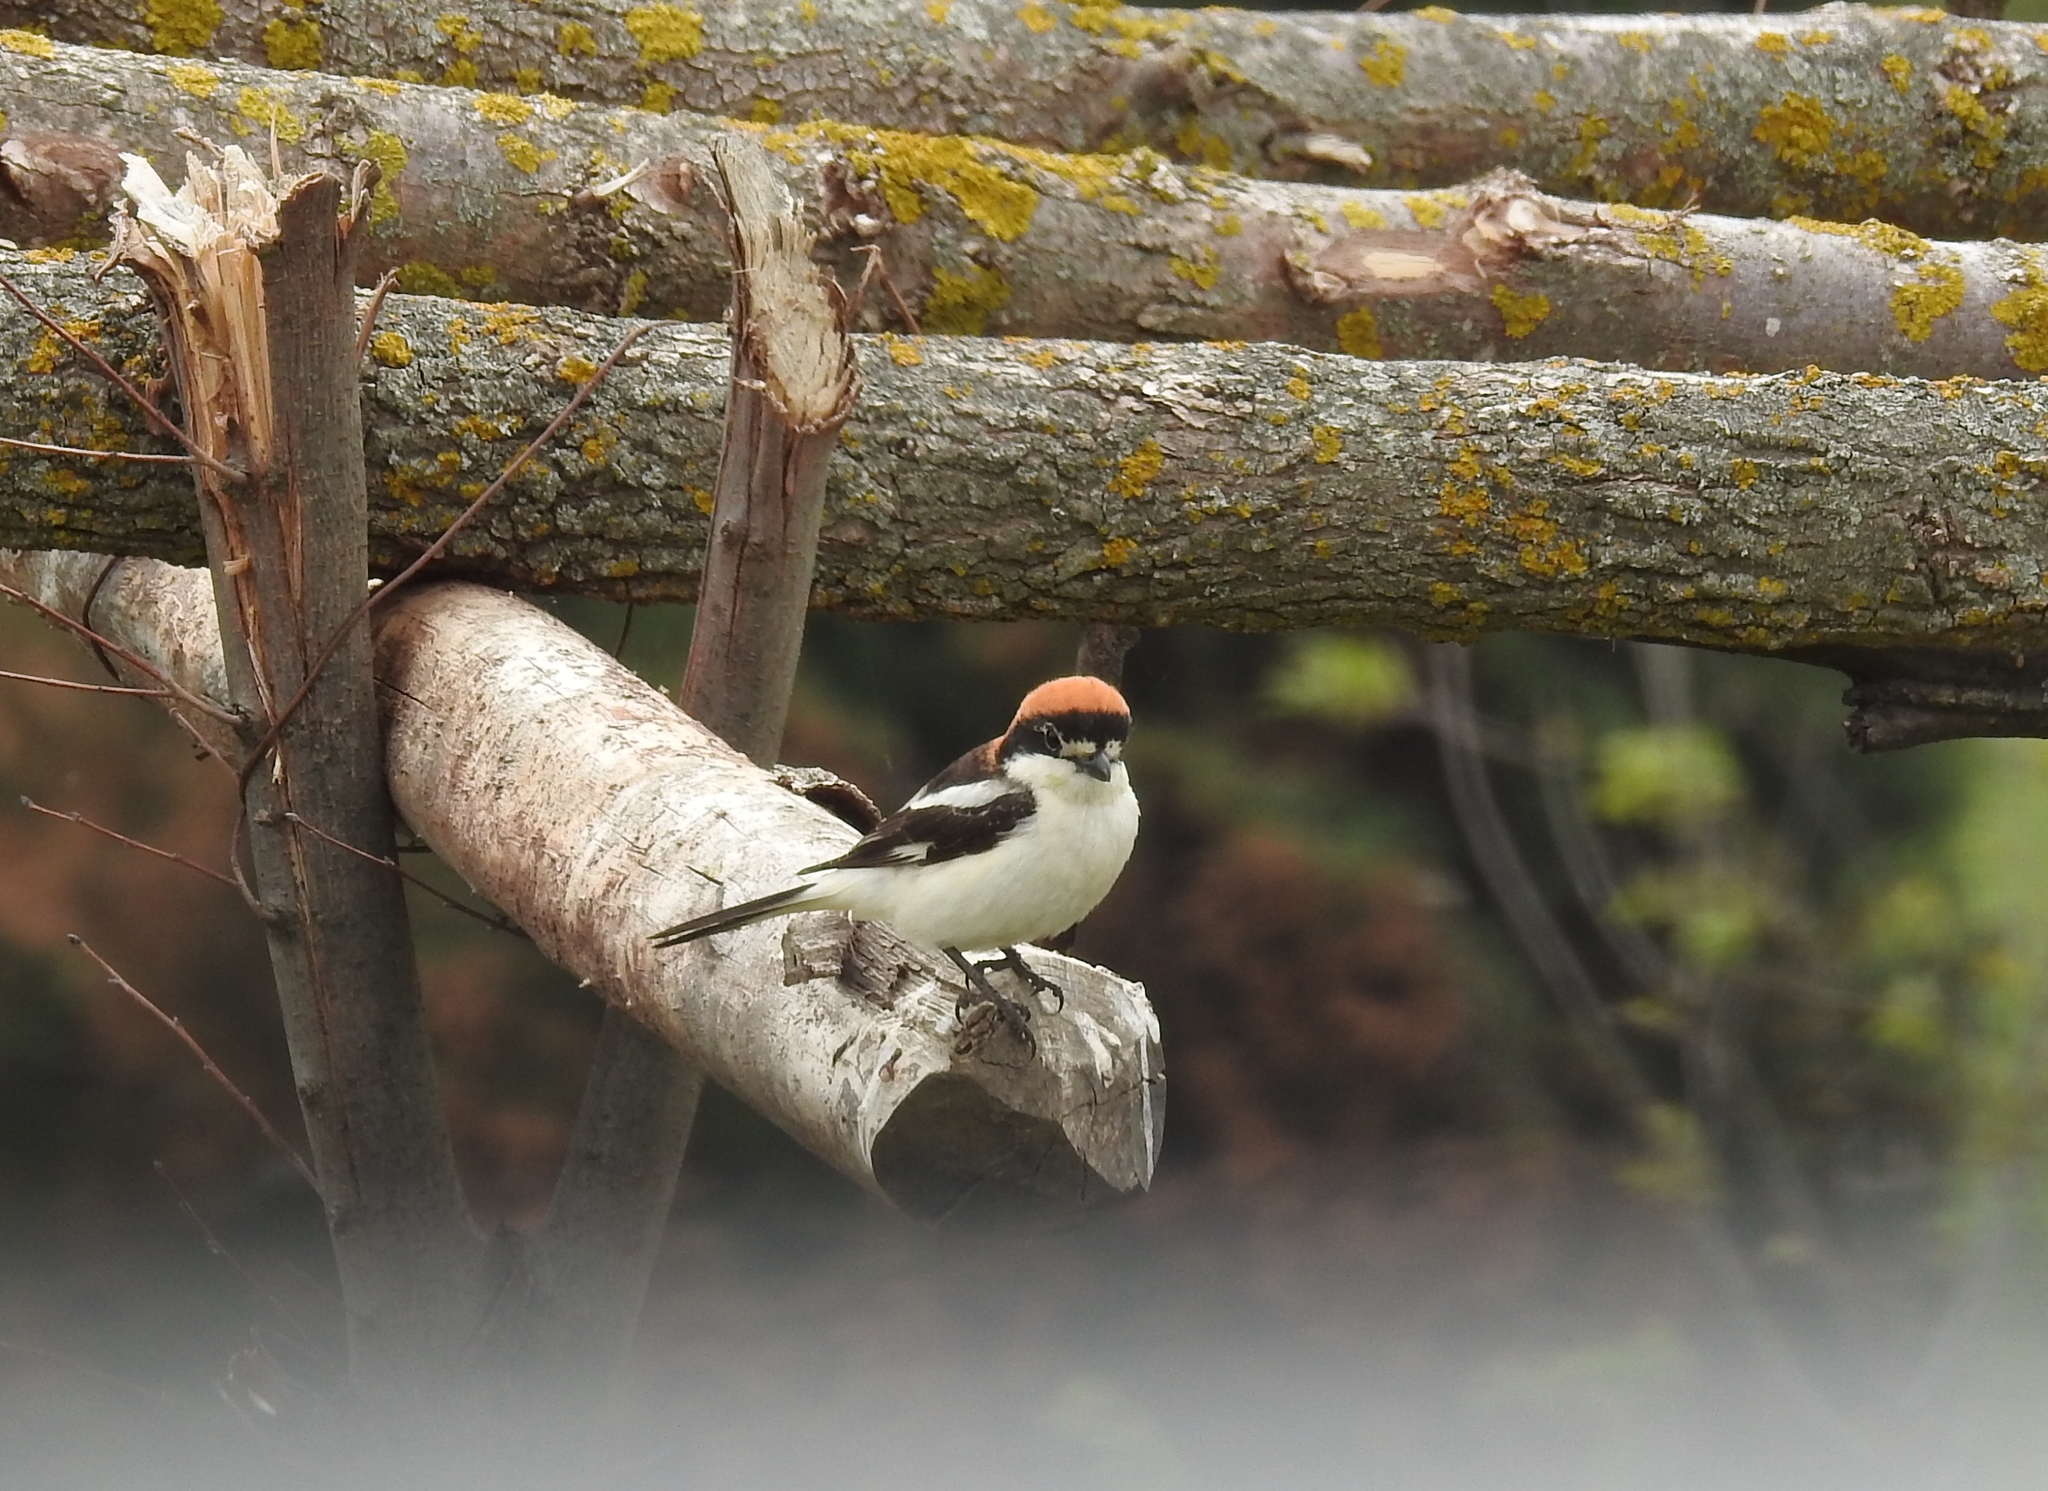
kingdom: Animalia
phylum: Chordata
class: Aves
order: Passeriformes
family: Laniidae
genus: Lanius
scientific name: Lanius senator
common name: Woodchat shrike
